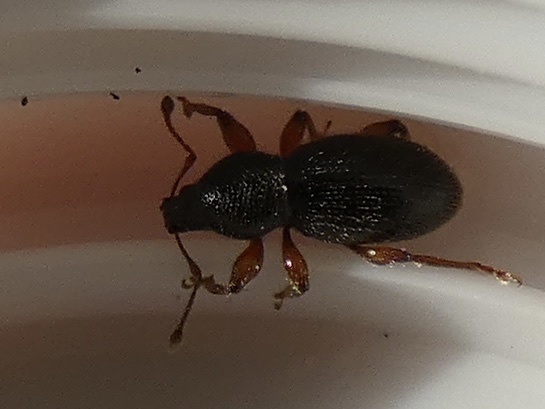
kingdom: Animalia
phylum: Arthropoda
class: Insecta
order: Coleoptera
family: Curculionidae
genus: Exomias
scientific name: Exomias pellucidus
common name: Hairy spider weevil
